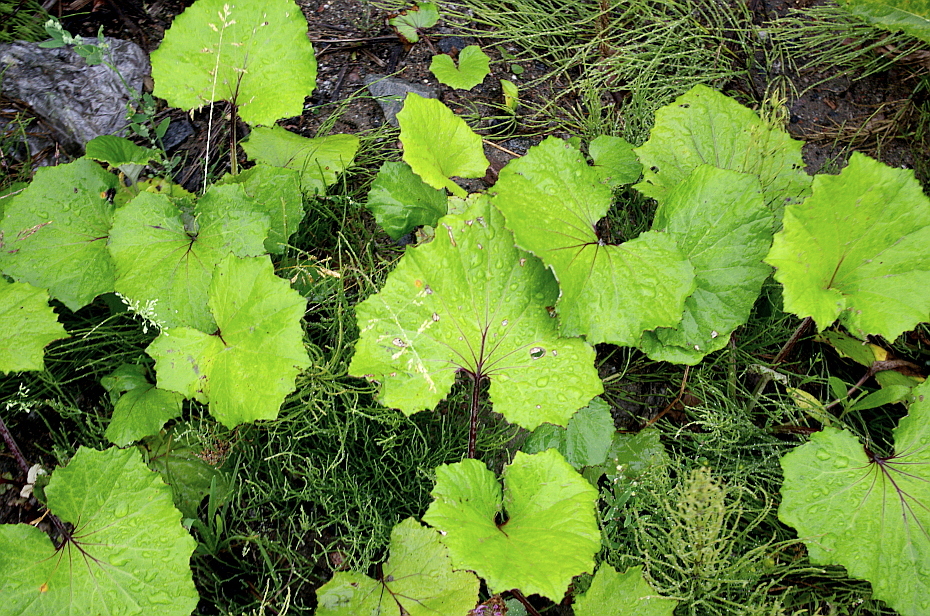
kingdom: Plantae
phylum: Tracheophyta
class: Magnoliopsida
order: Asterales
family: Asteraceae
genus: Tussilago
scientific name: Tussilago farfara
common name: Coltsfoot
